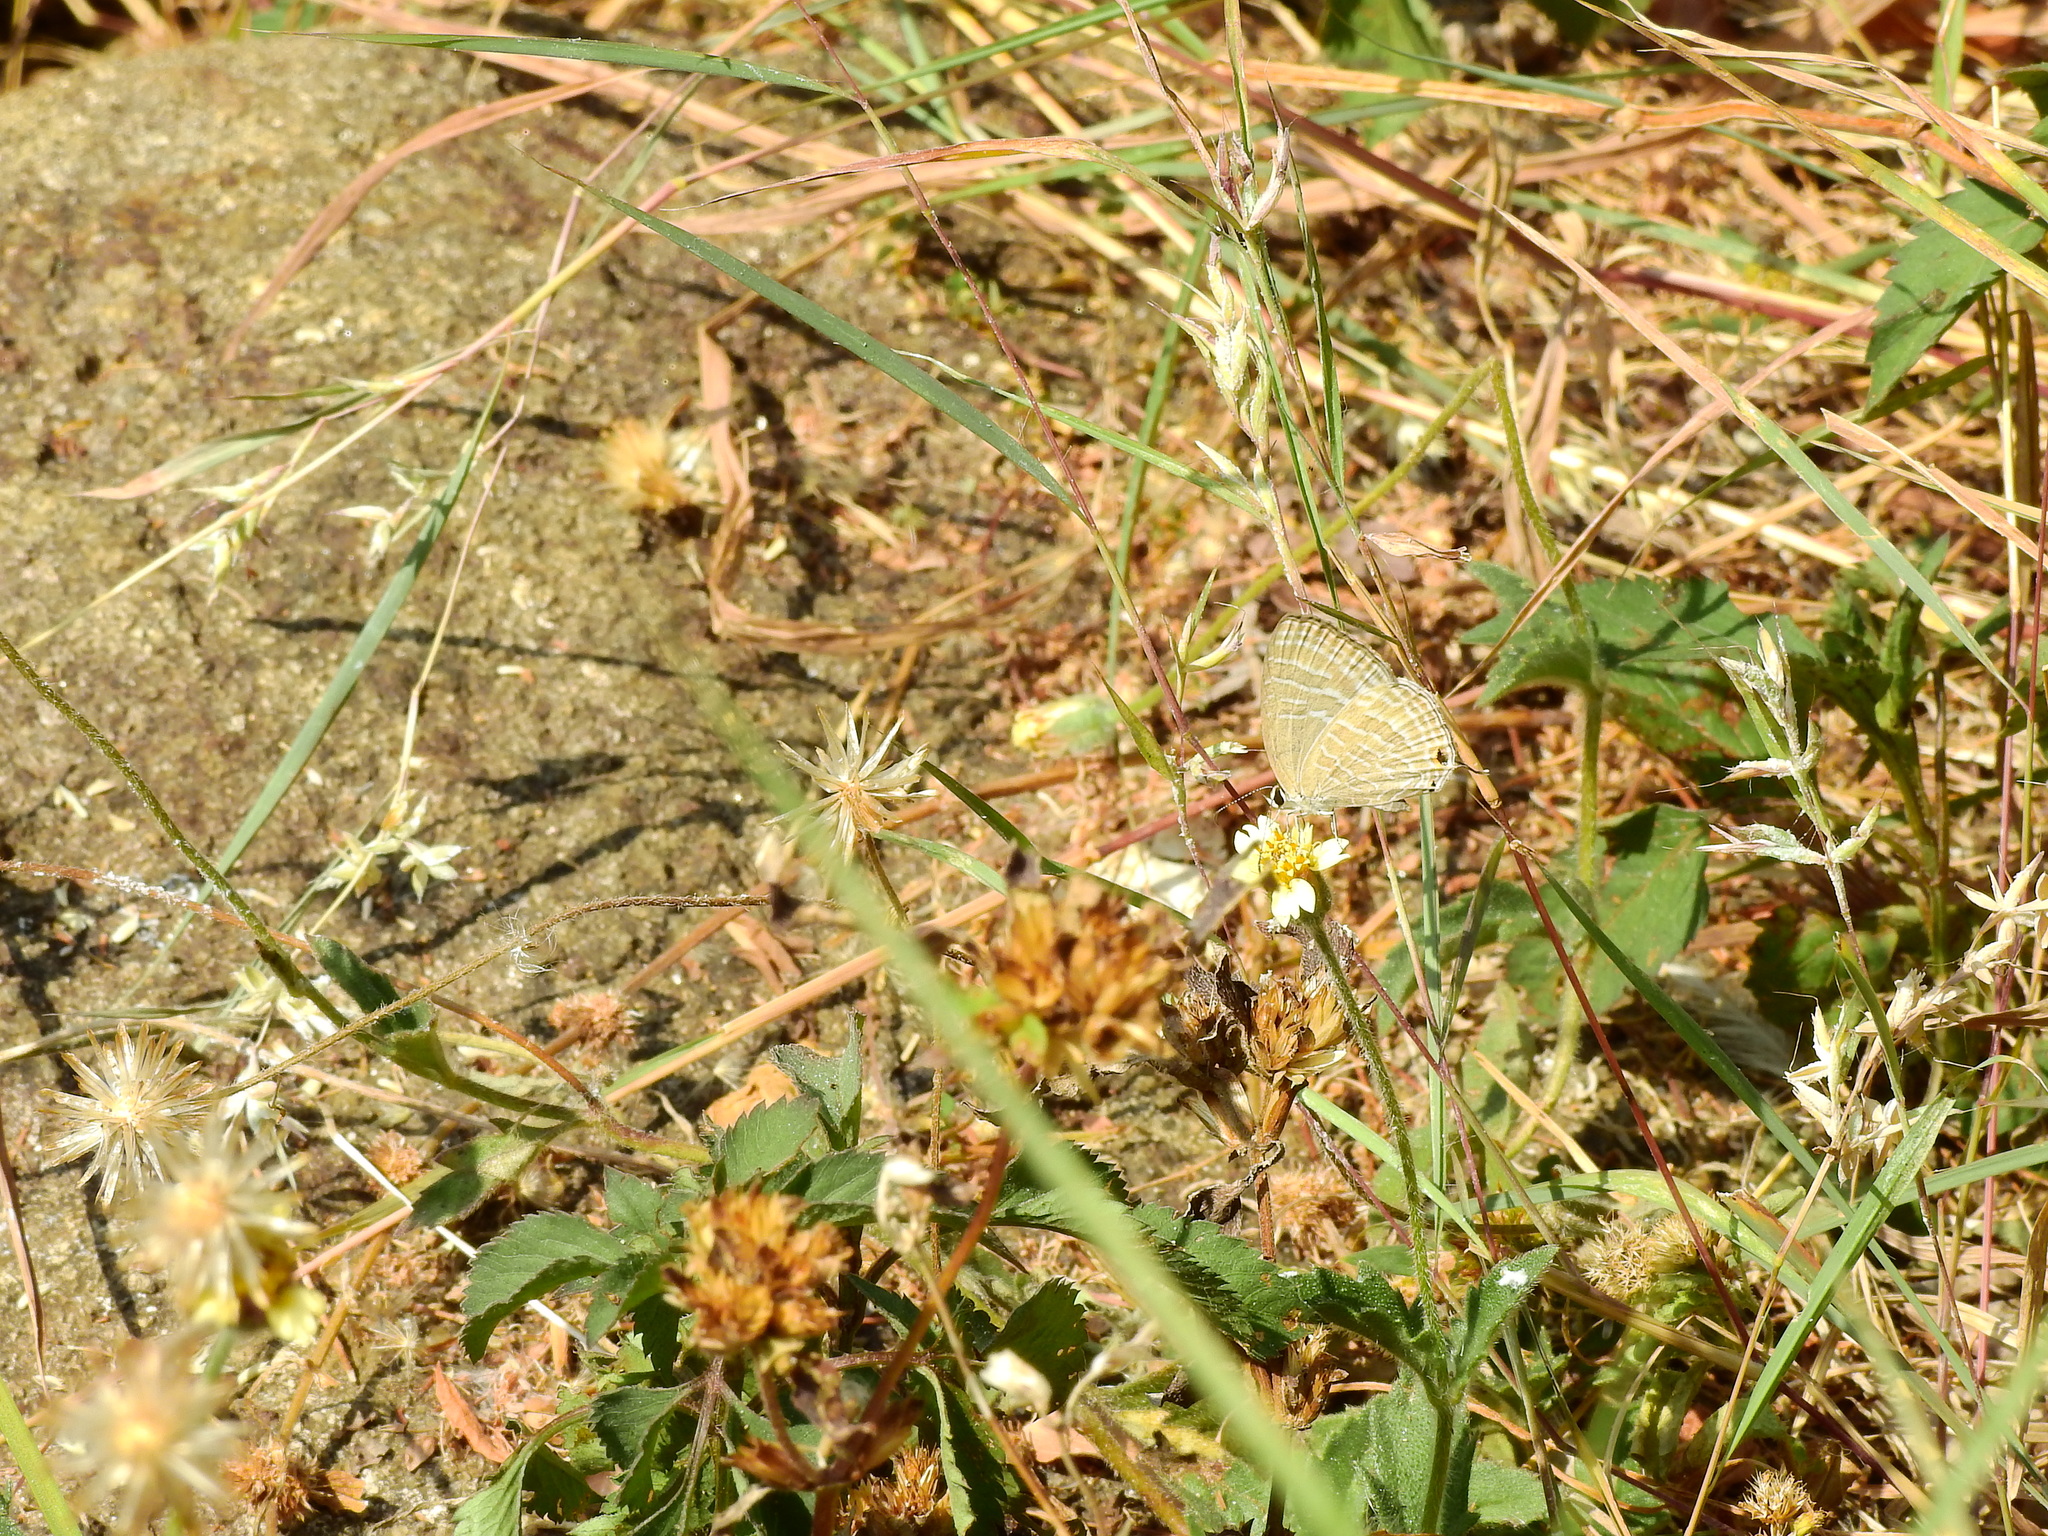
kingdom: Animalia
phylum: Arthropoda
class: Insecta
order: Lepidoptera
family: Lycaenidae
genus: Jamides
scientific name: Jamides celeno
